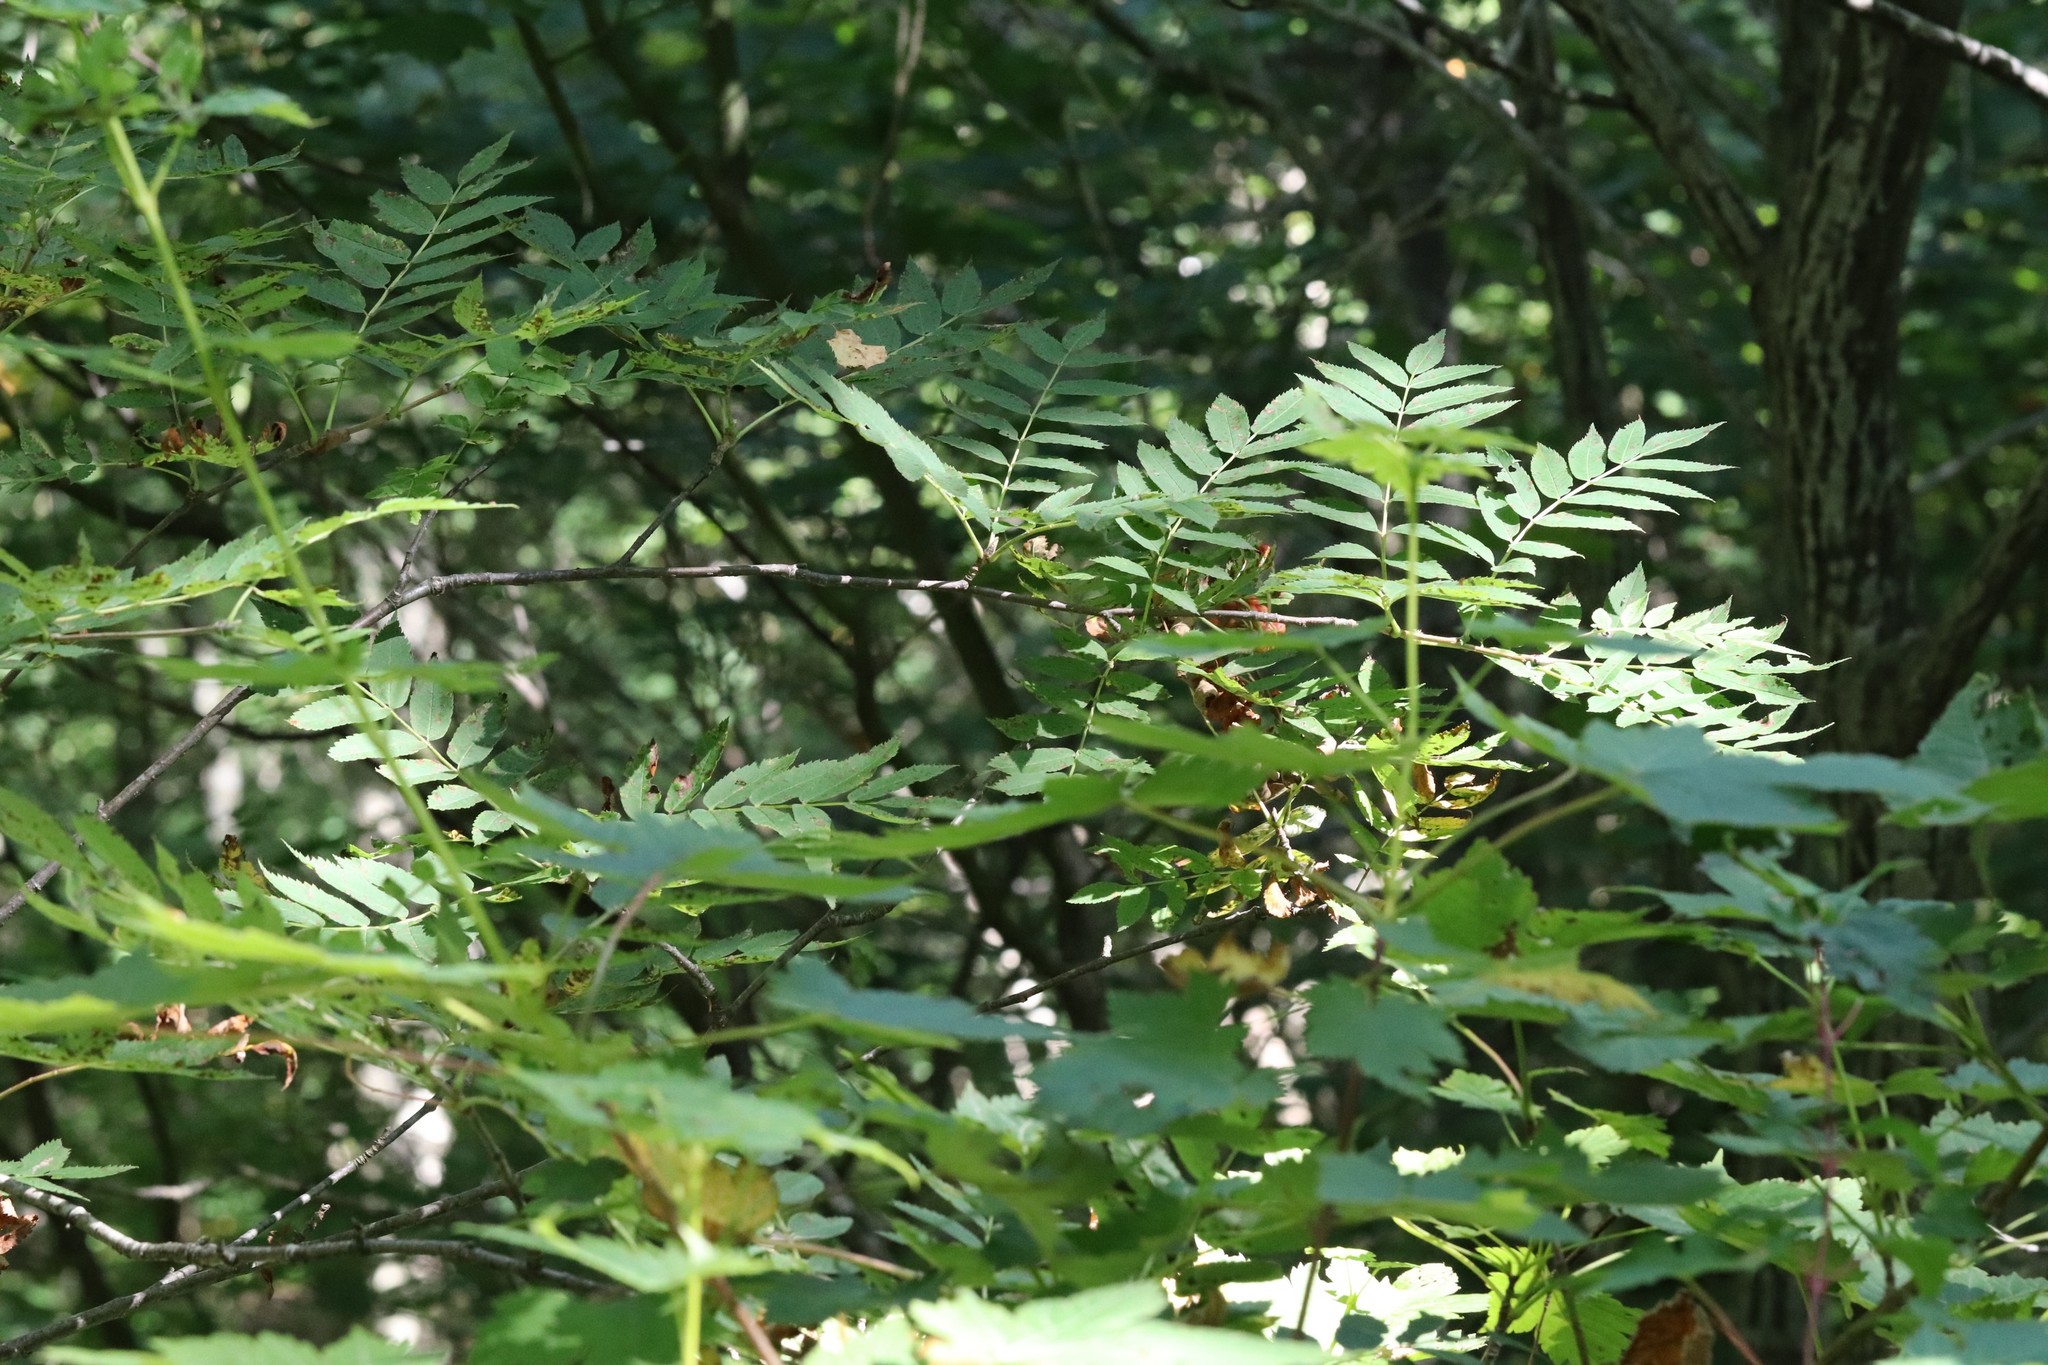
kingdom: Plantae
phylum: Tracheophyta
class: Magnoliopsida
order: Rosales
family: Rosaceae
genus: Sorbus
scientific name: Sorbus aucuparia
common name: Rowan
